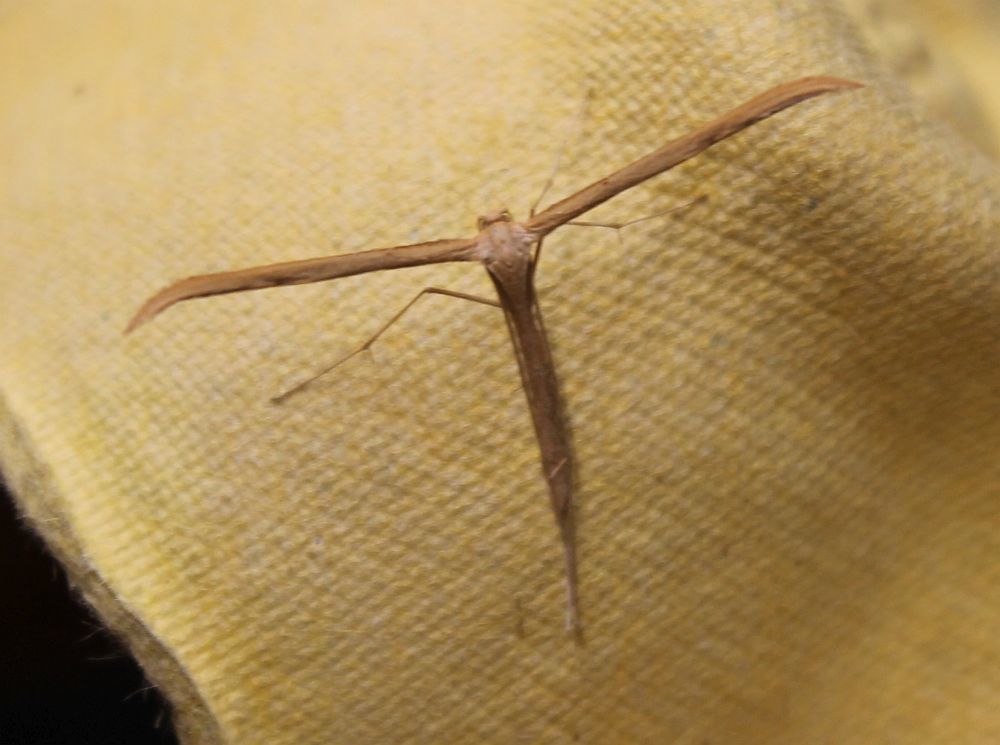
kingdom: Animalia
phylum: Arthropoda
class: Insecta
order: Lepidoptera
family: Pterophoridae
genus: Emmelina
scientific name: Emmelina monodactyla
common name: Common plume
